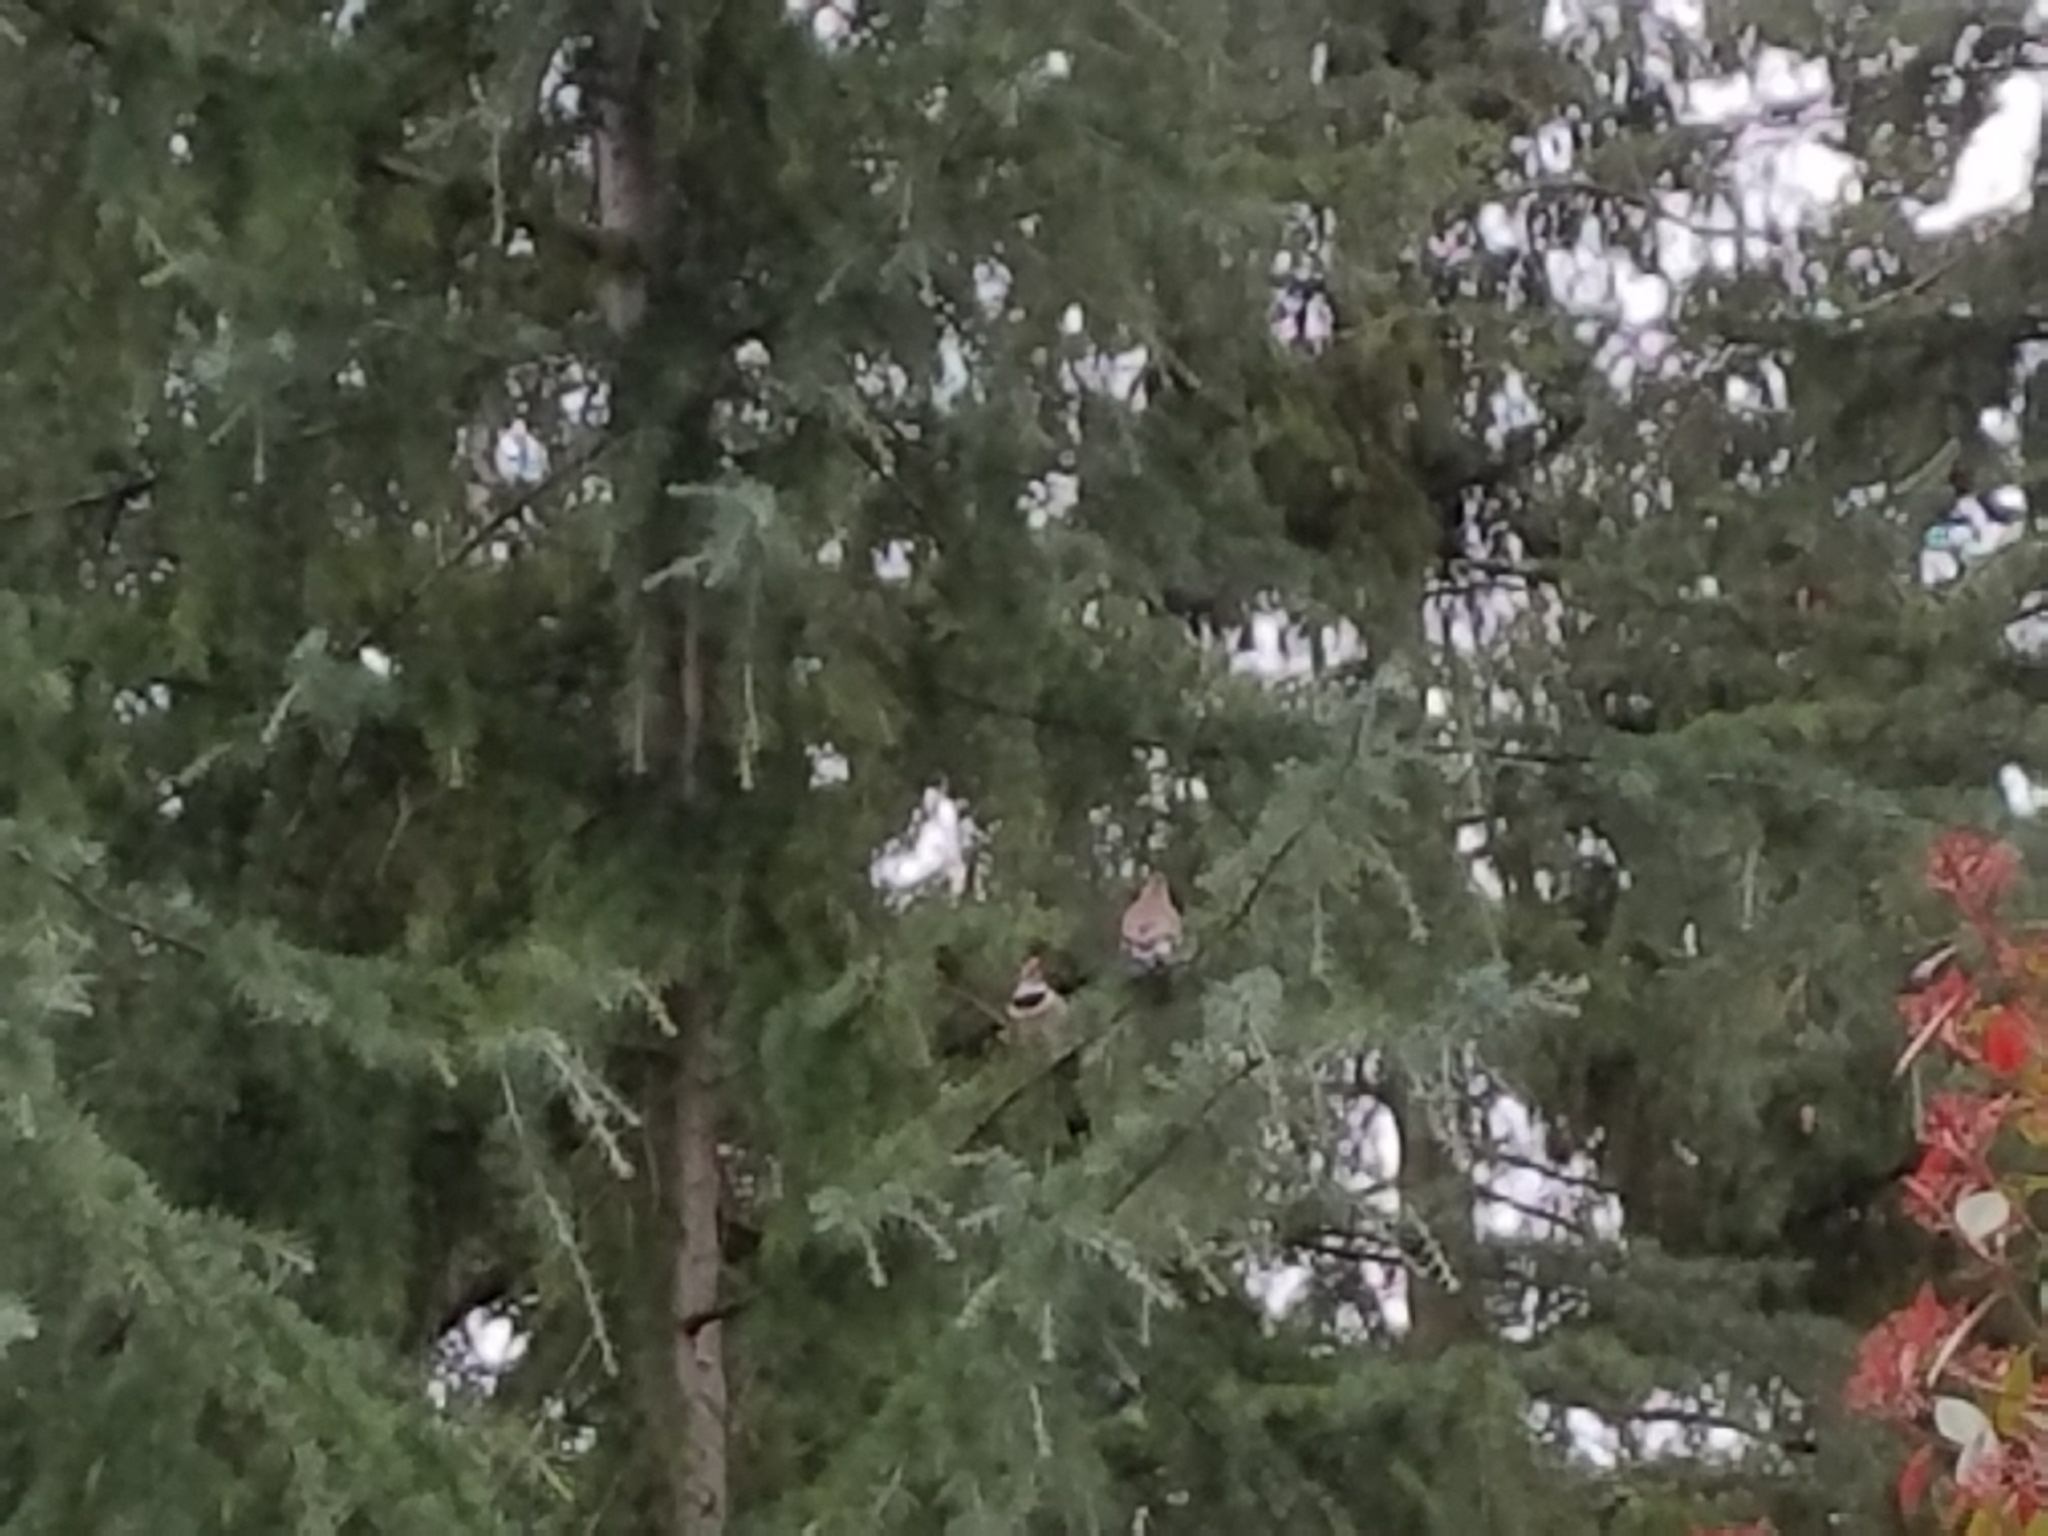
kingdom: Animalia
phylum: Chordata
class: Aves
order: Piciformes
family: Picidae
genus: Colaptes
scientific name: Colaptes auratus
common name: Northern flicker
